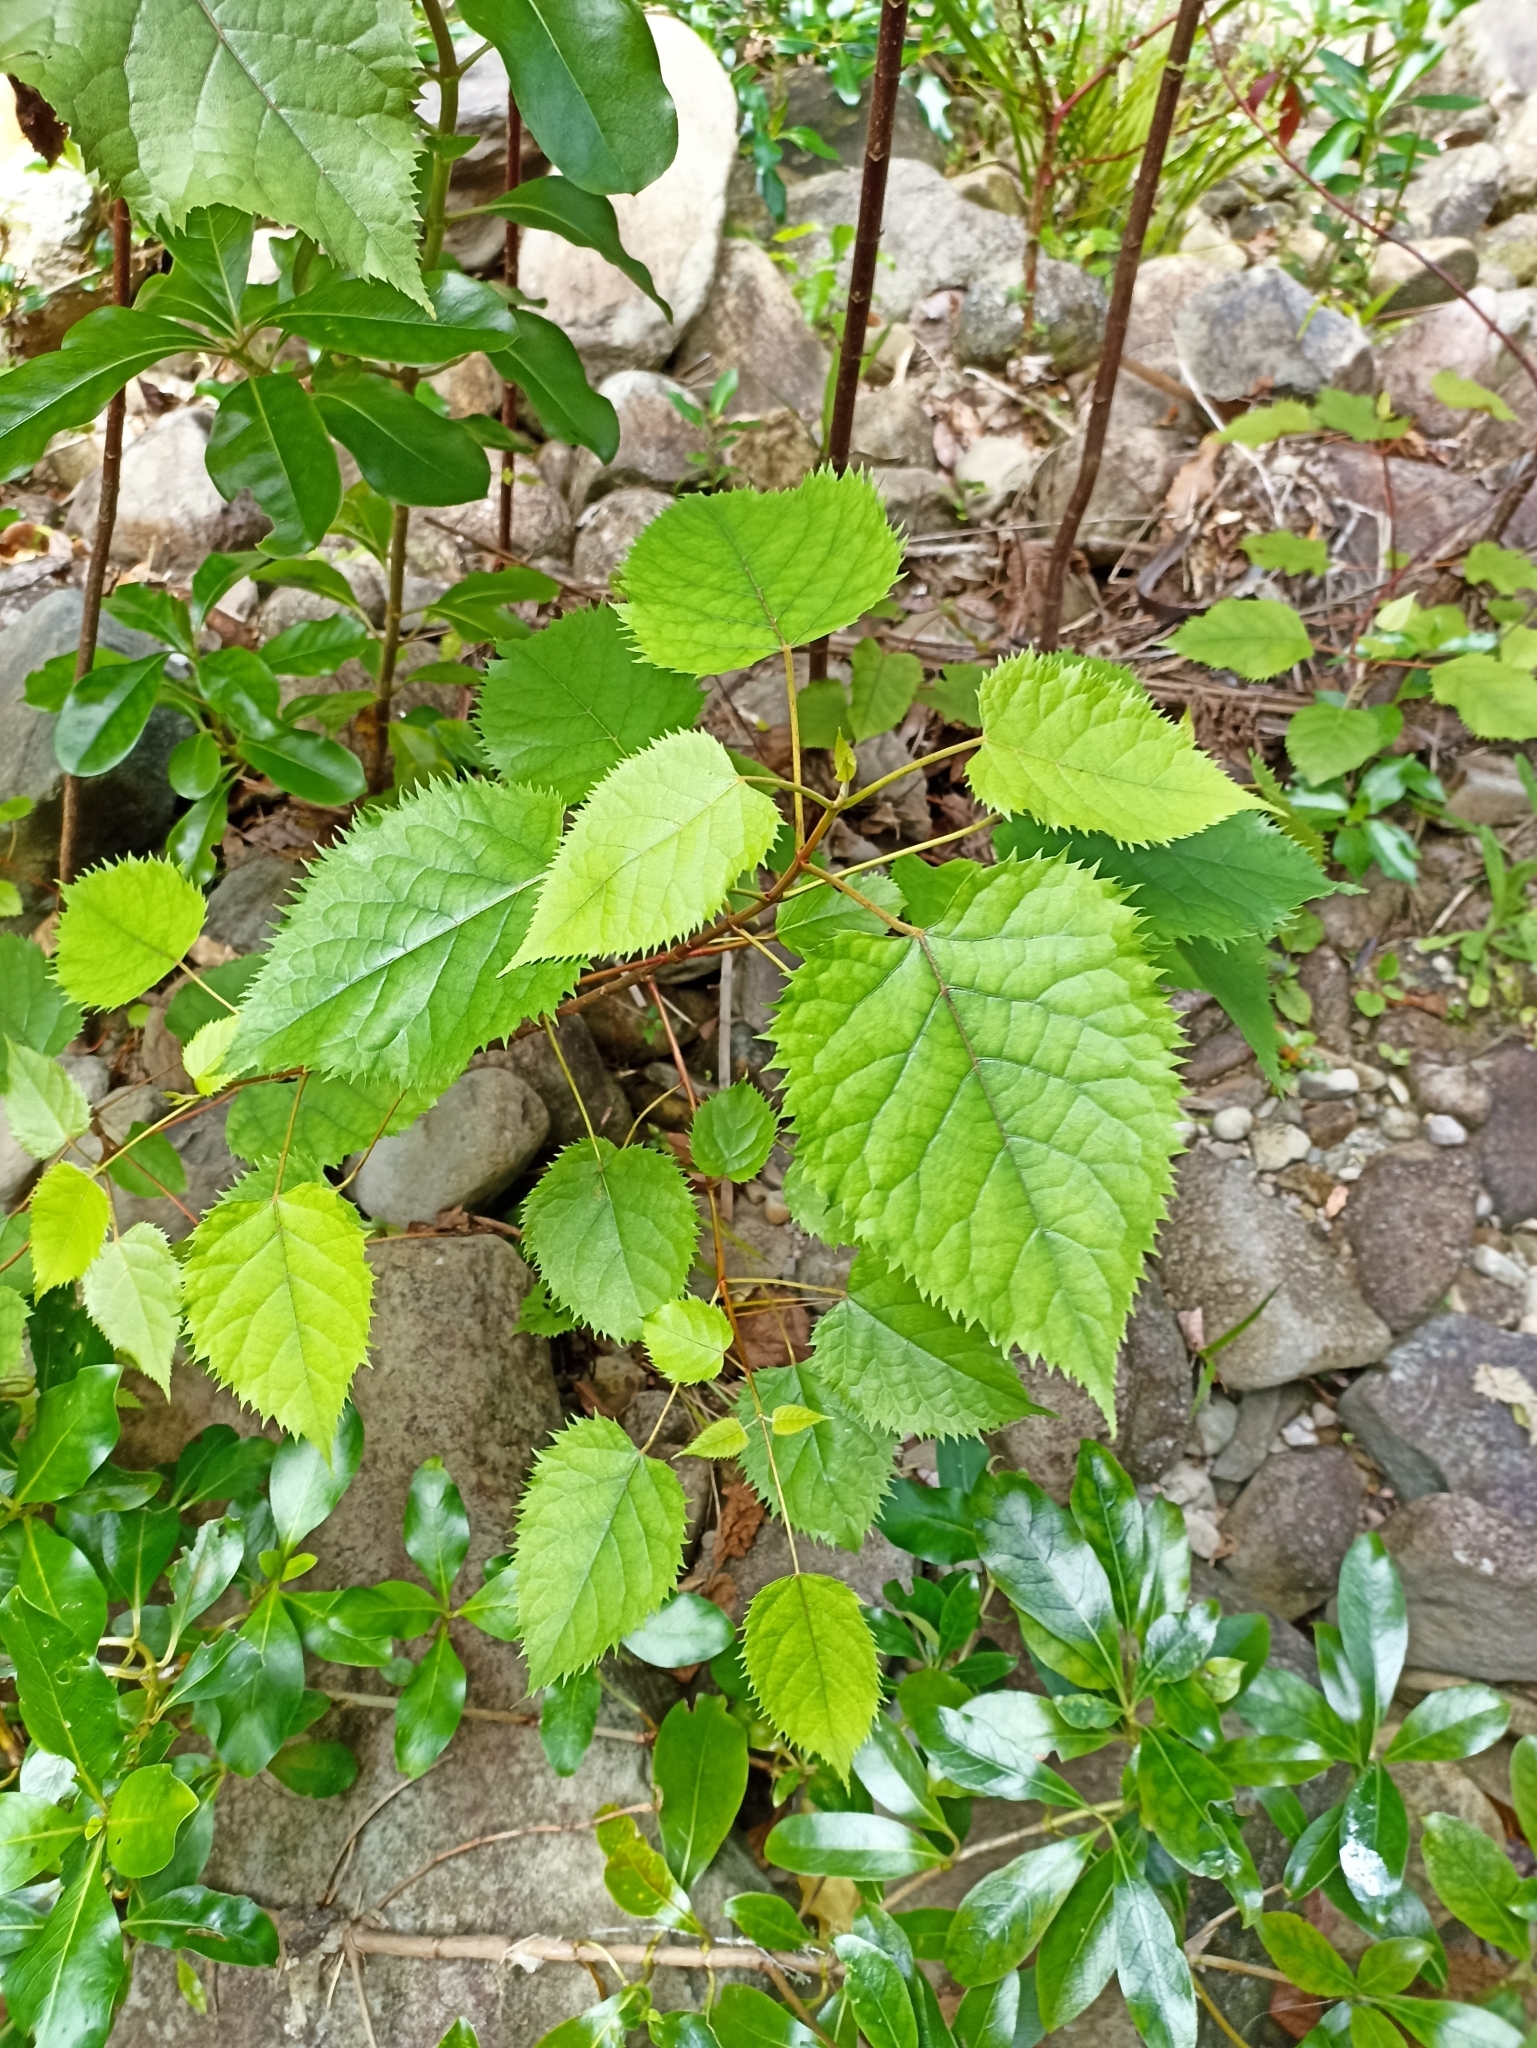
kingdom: Plantae
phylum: Tracheophyta
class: Magnoliopsida
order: Oxalidales
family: Elaeocarpaceae
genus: Aristotelia
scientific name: Aristotelia serrata
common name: New zealand wineberry
